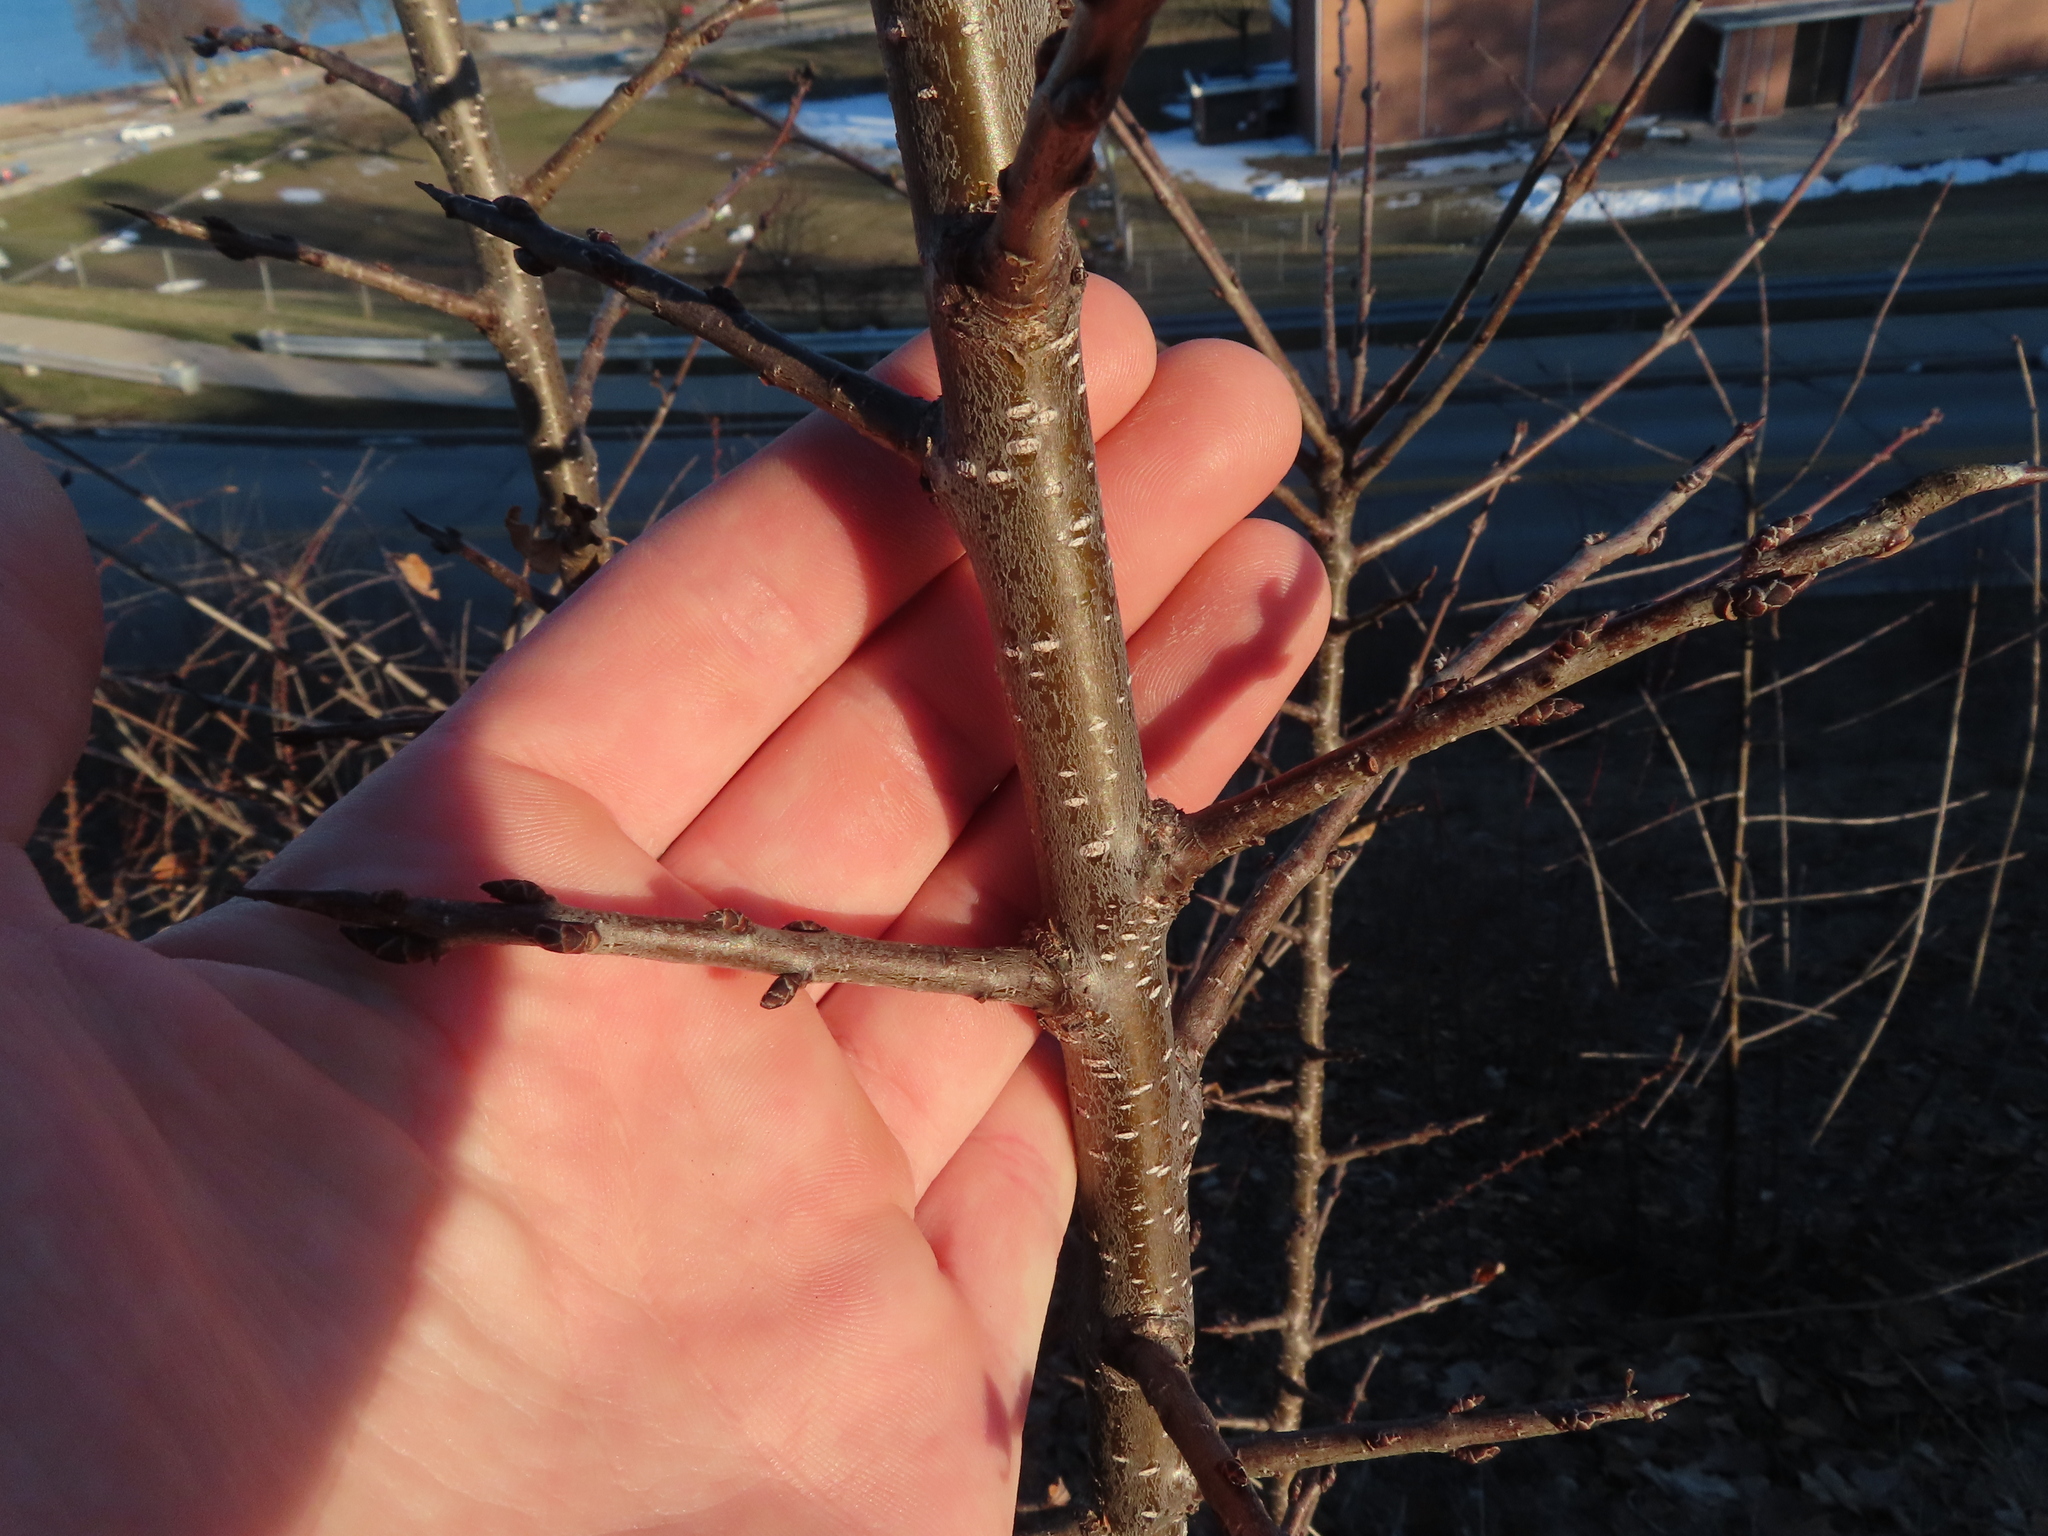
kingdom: Plantae
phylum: Tracheophyta
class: Magnoliopsida
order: Rosales
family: Rhamnaceae
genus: Rhamnus
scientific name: Rhamnus cathartica
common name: Common buckthorn
